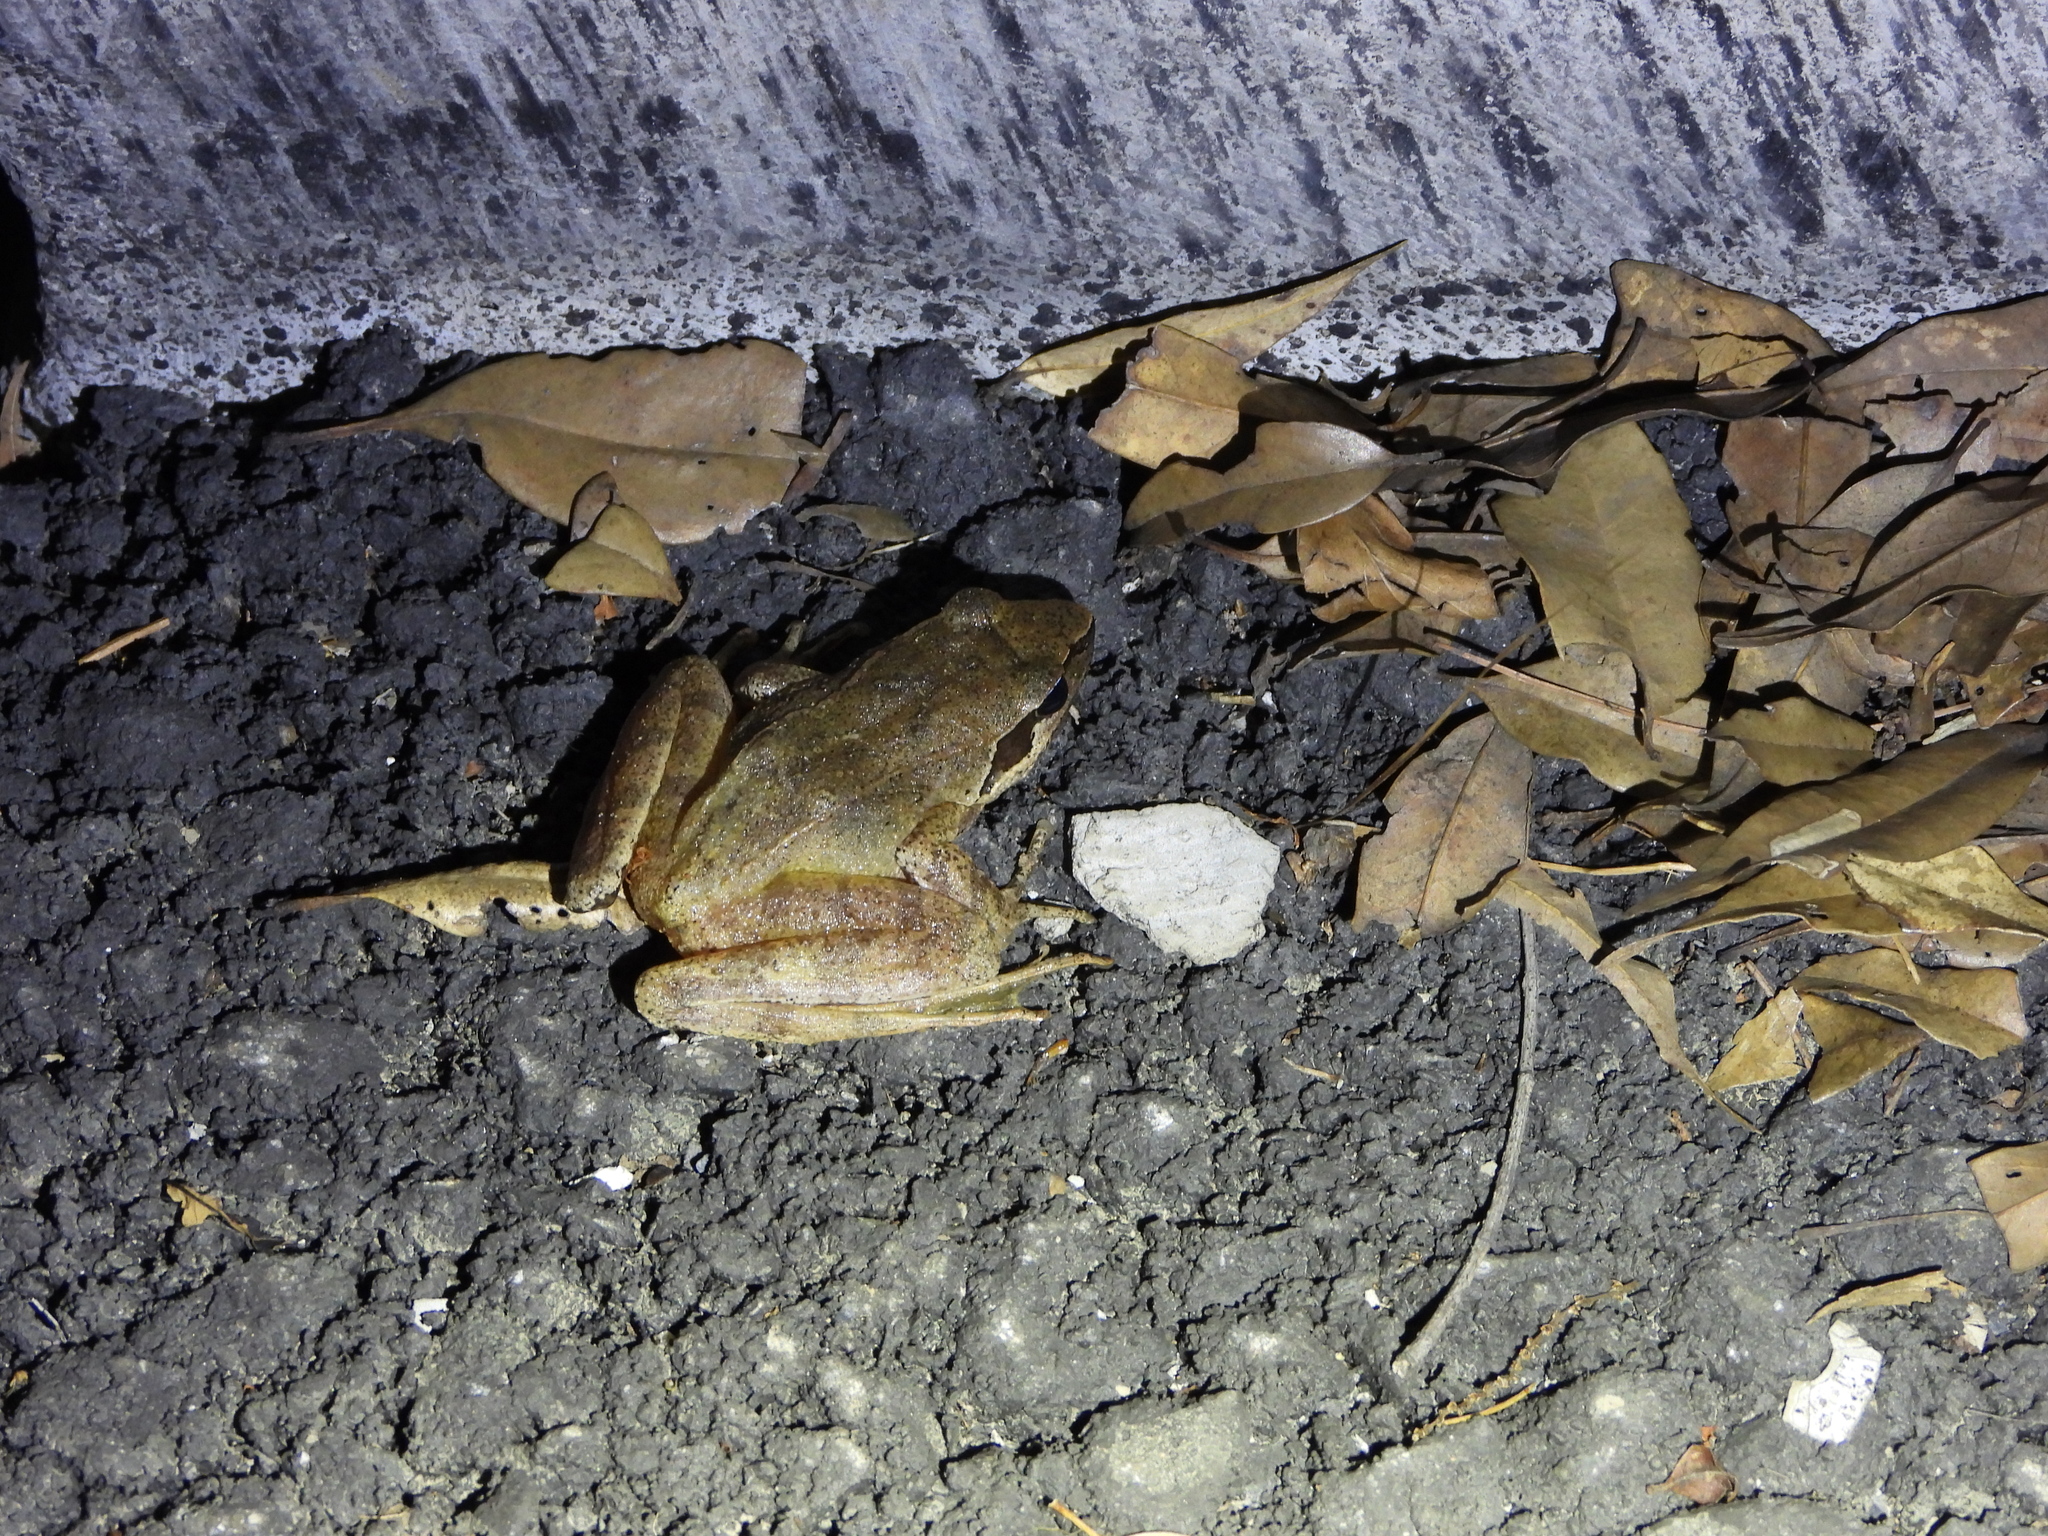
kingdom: Animalia
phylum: Chordata
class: Amphibia
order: Anura
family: Ranidae
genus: Rana
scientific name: Rana sauteri
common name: Kanshirei village frog
